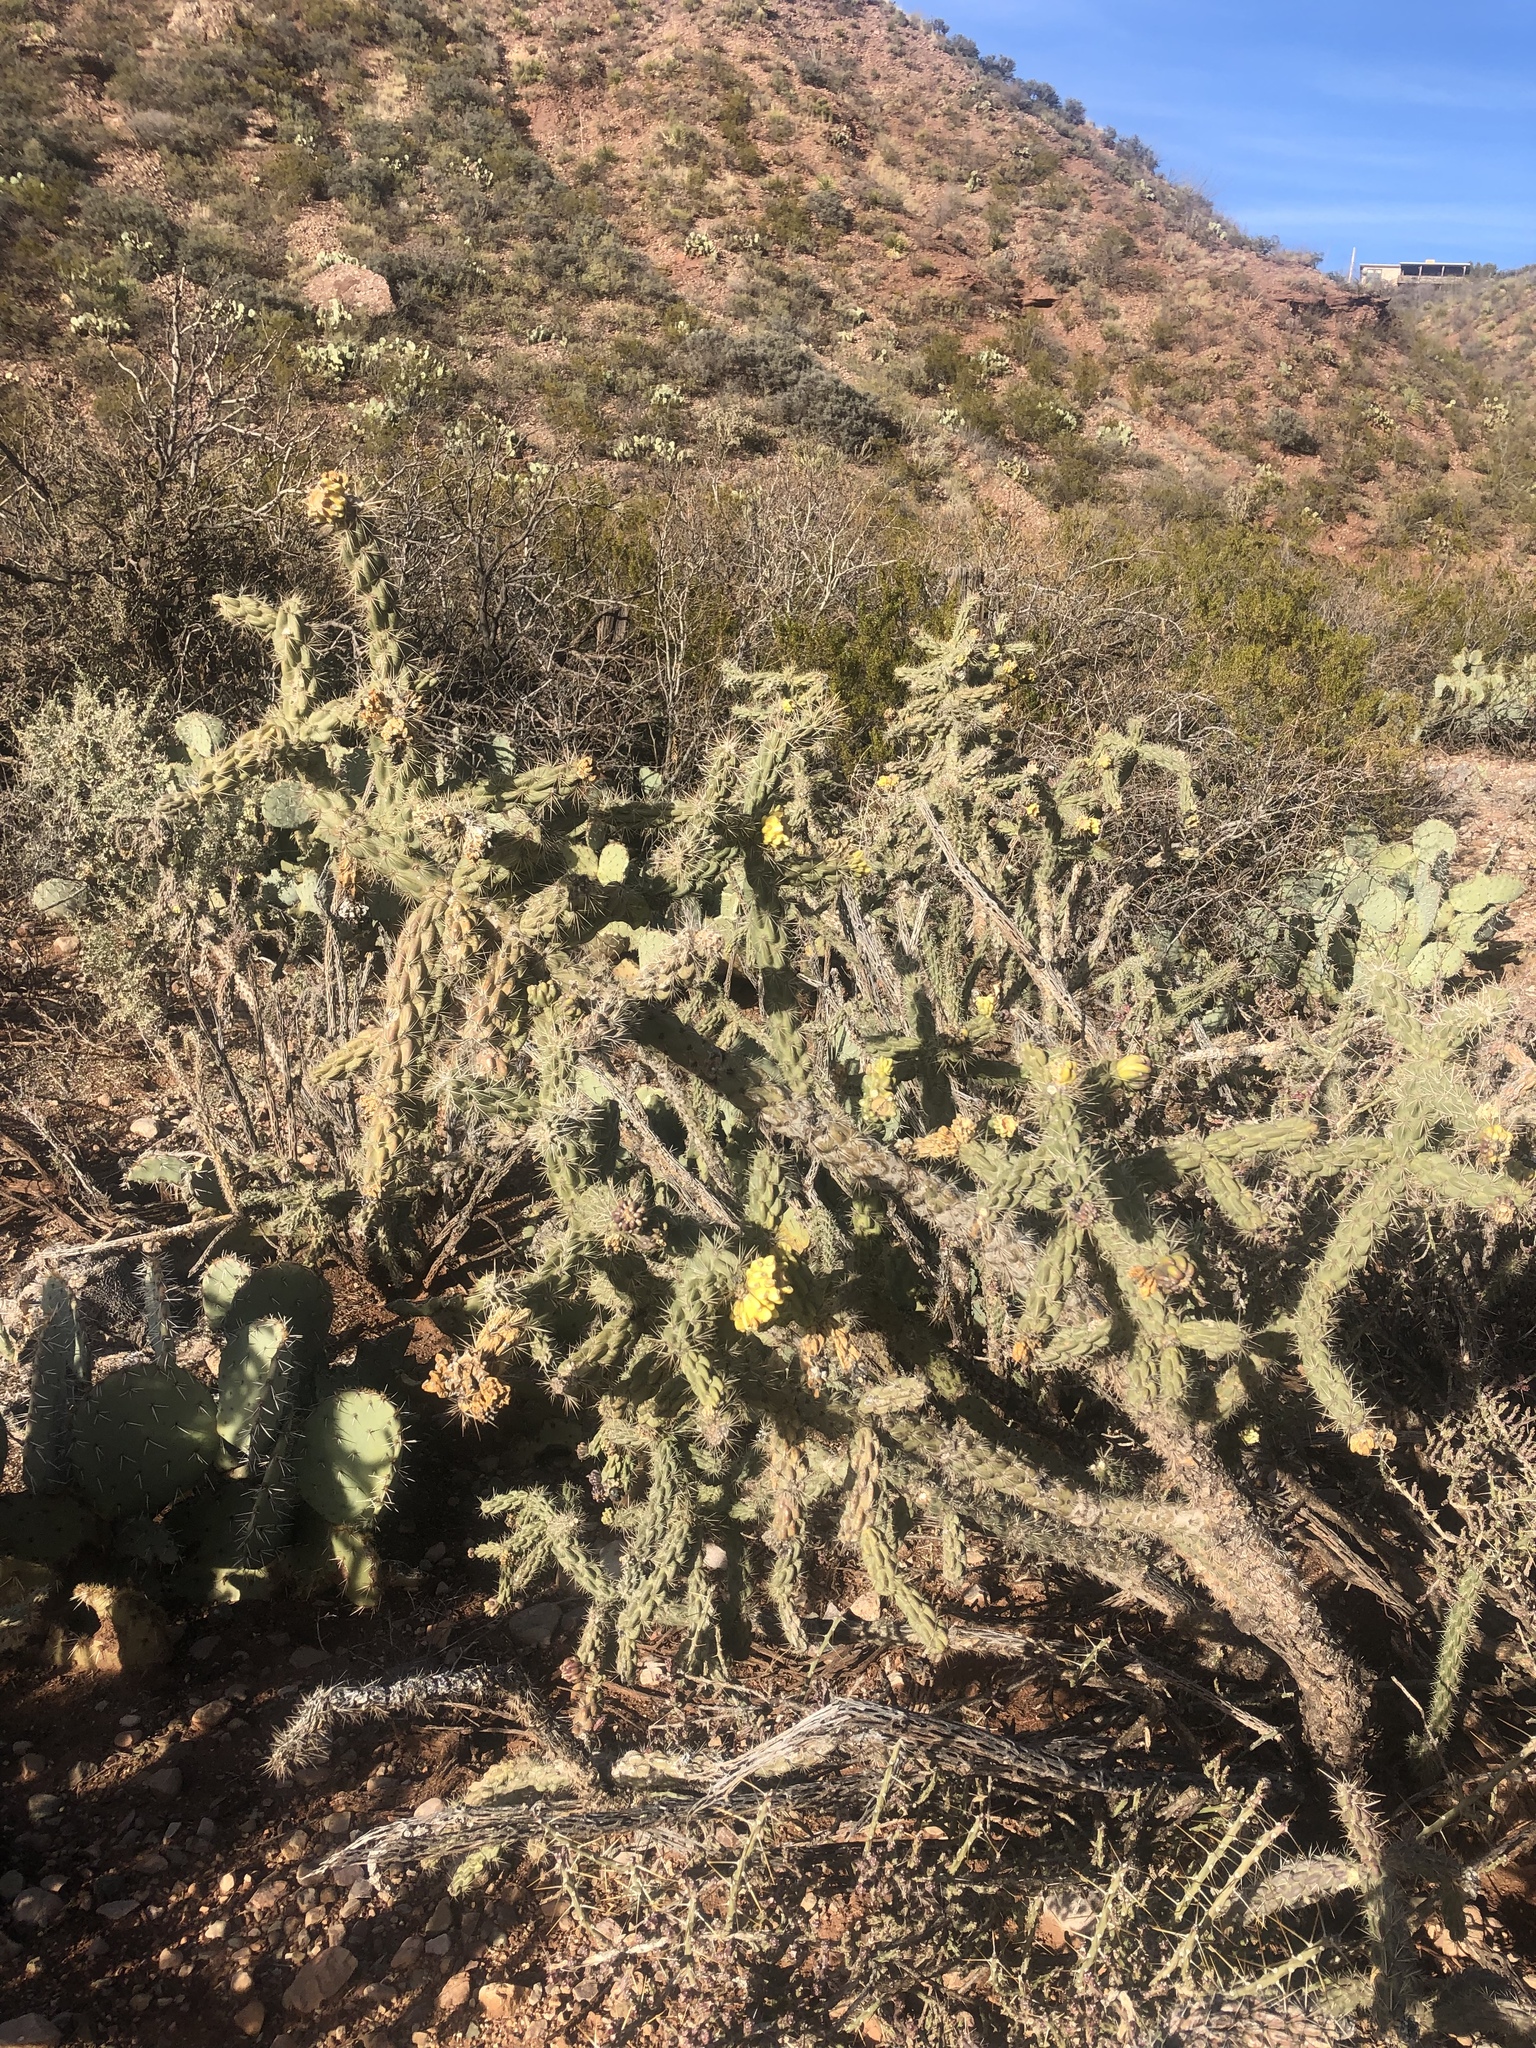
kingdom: Plantae
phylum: Tracheophyta
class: Magnoliopsida
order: Caryophyllales
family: Cactaceae
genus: Cylindropuntia
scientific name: Cylindropuntia imbricata
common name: Candelabrum cactus
